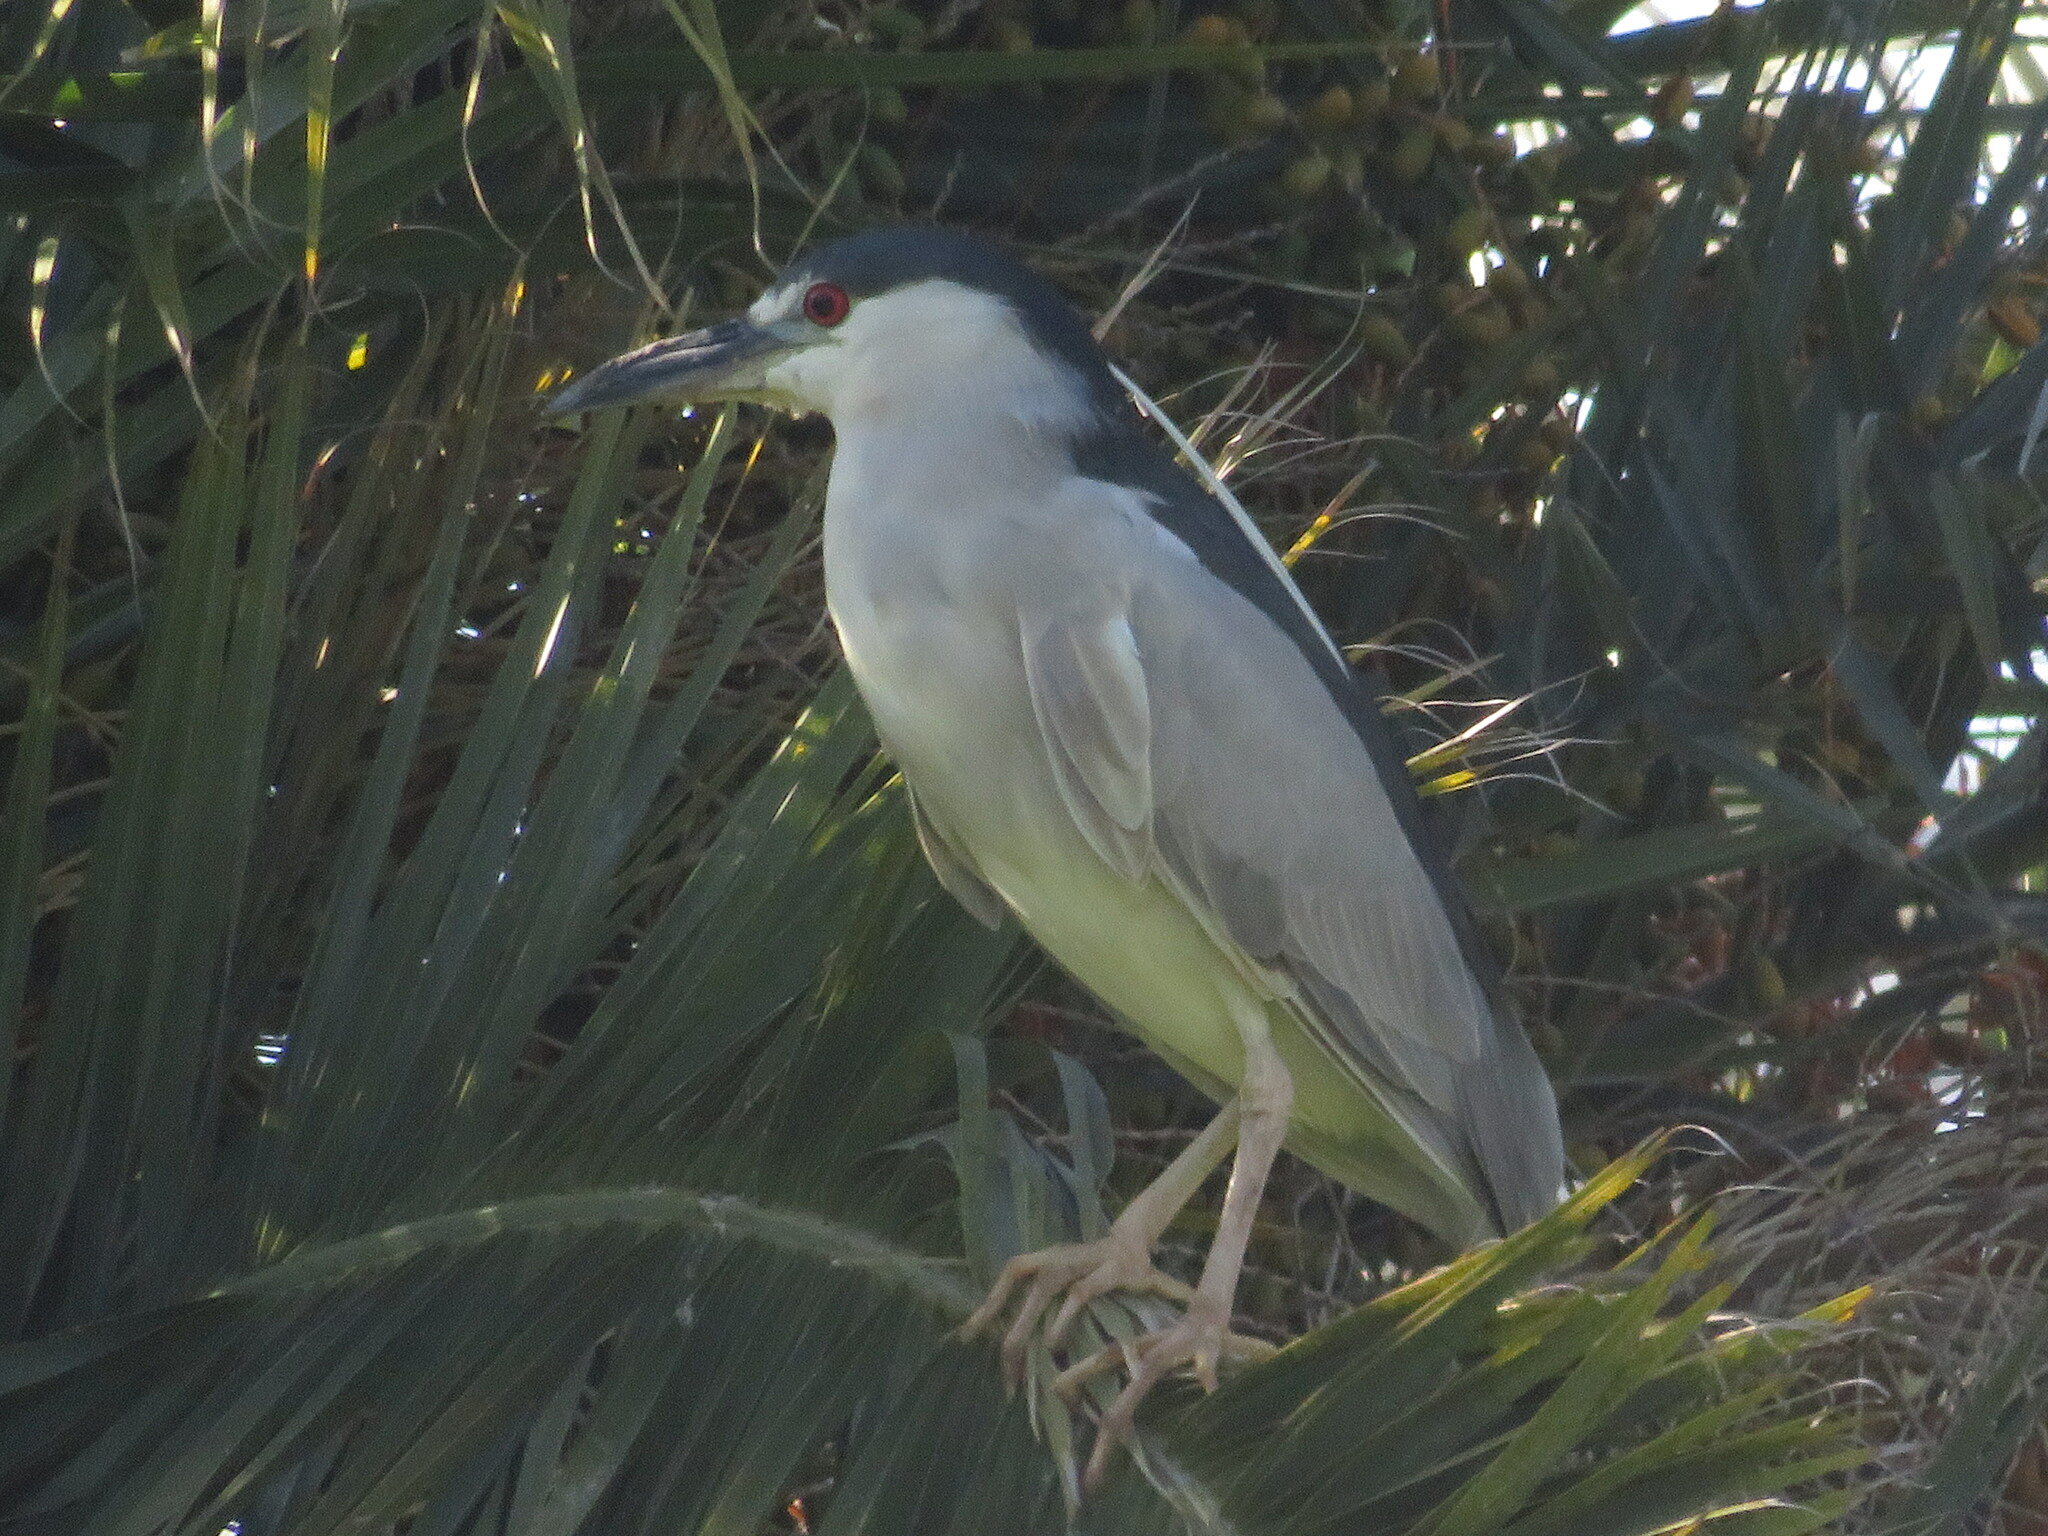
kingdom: Animalia
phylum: Chordata
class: Aves
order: Pelecaniformes
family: Ardeidae
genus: Nycticorax
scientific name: Nycticorax nycticorax
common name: Black-crowned night heron
